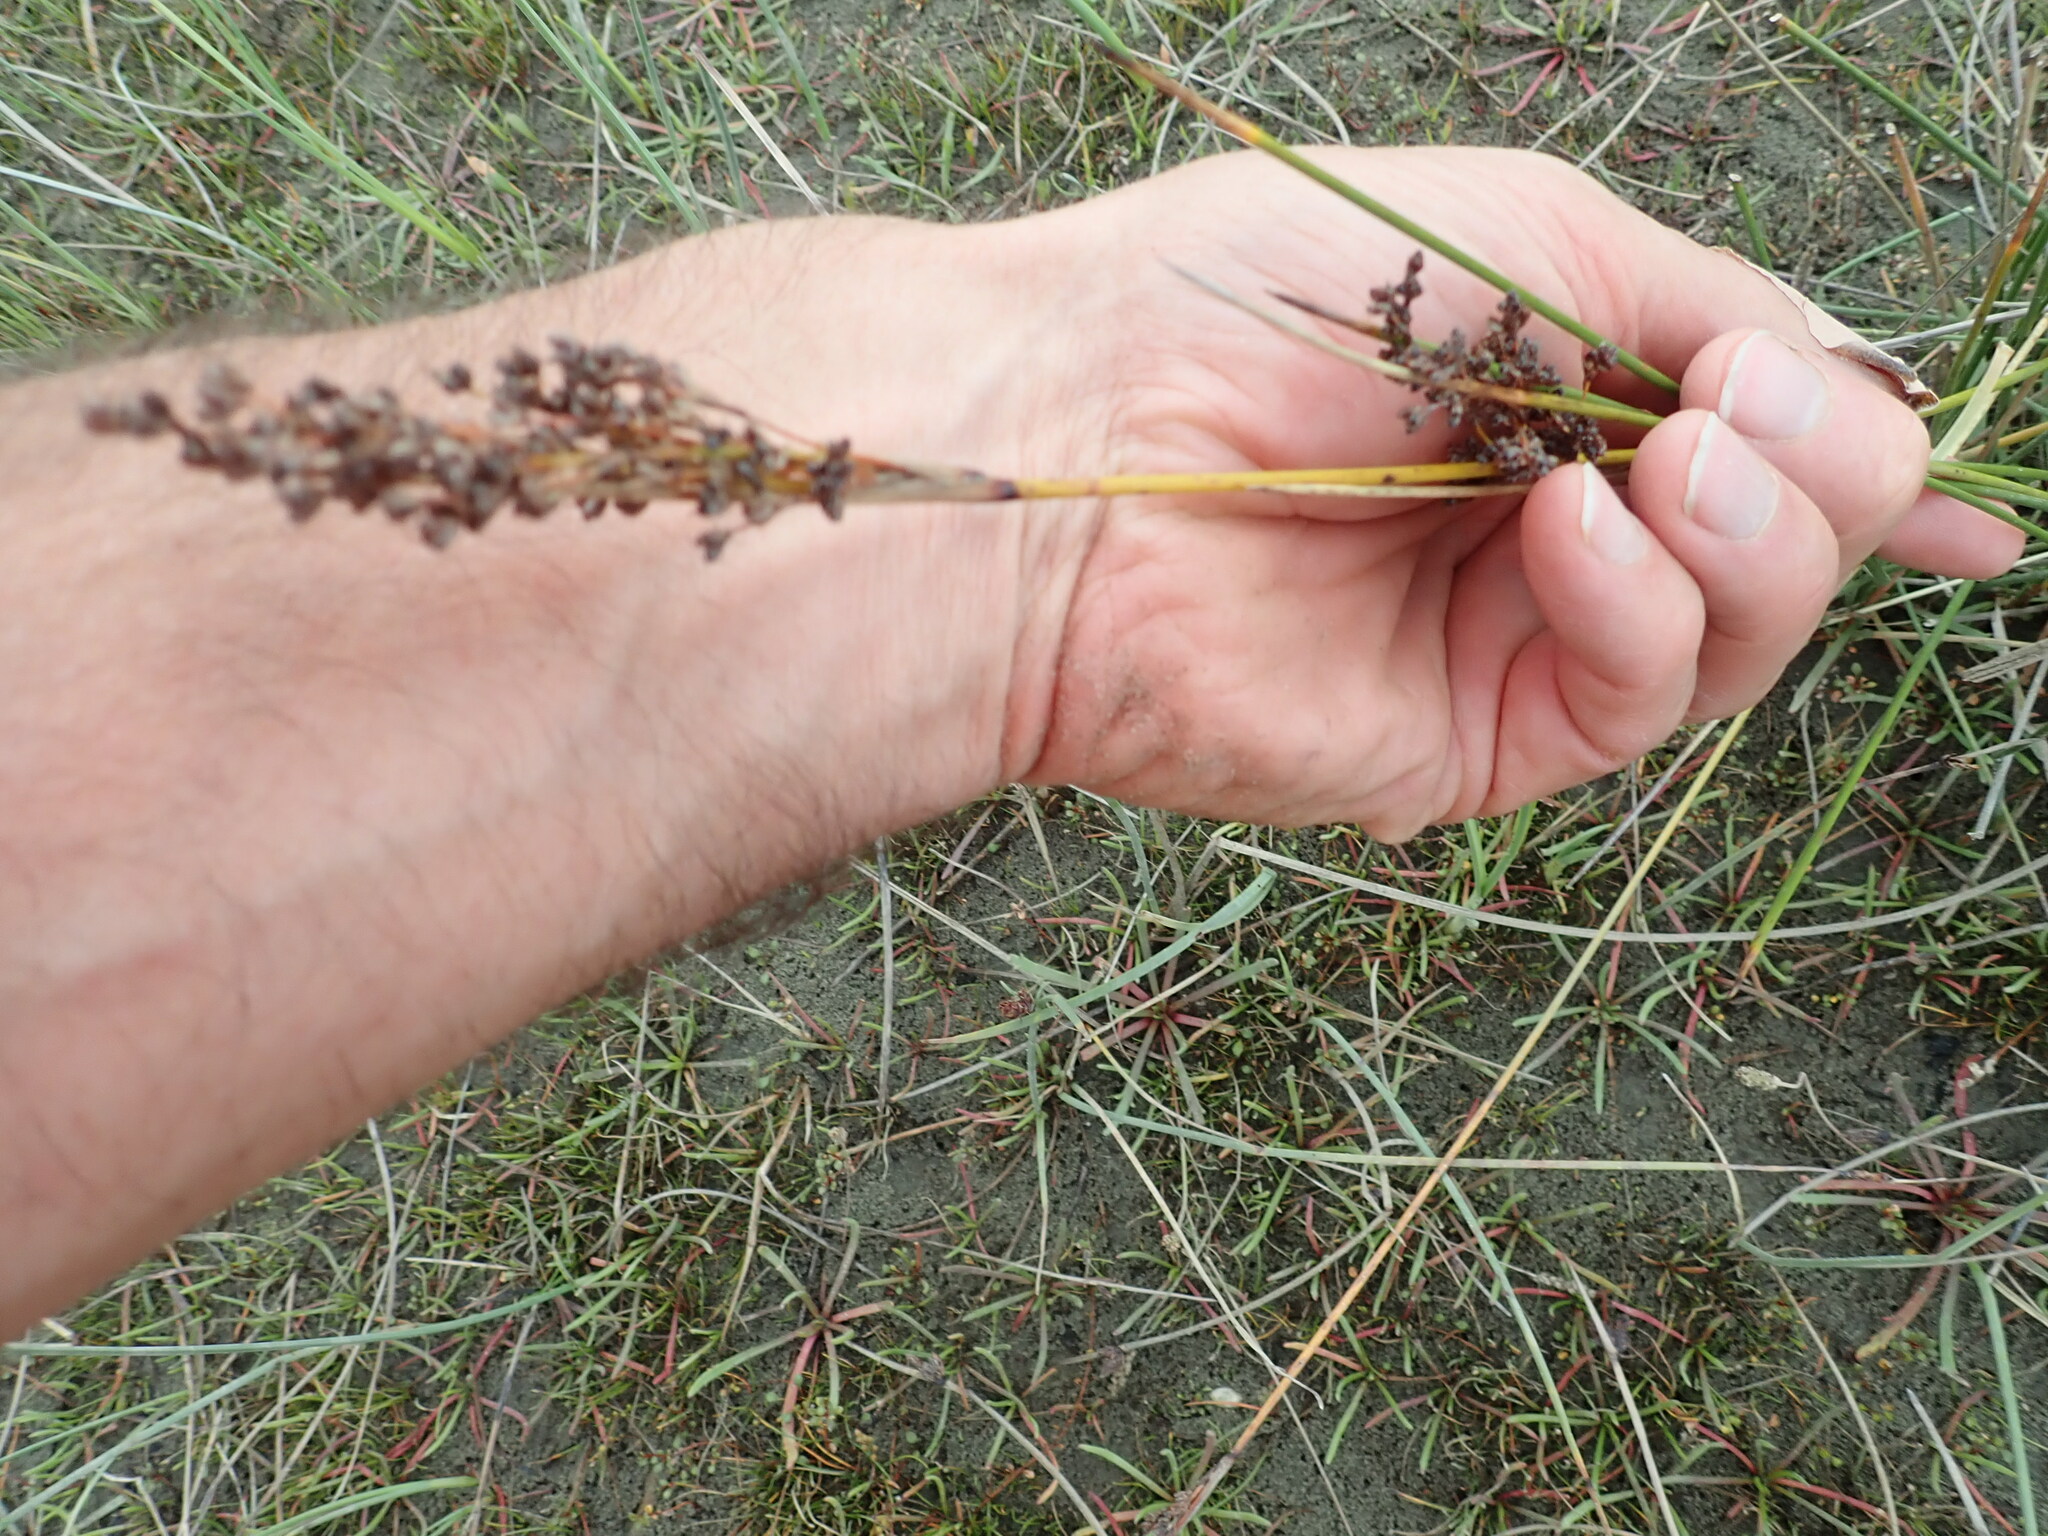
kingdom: Plantae
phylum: Tracheophyta
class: Liliopsida
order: Poales
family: Juncaceae
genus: Juncus
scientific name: Juncus kraussii
